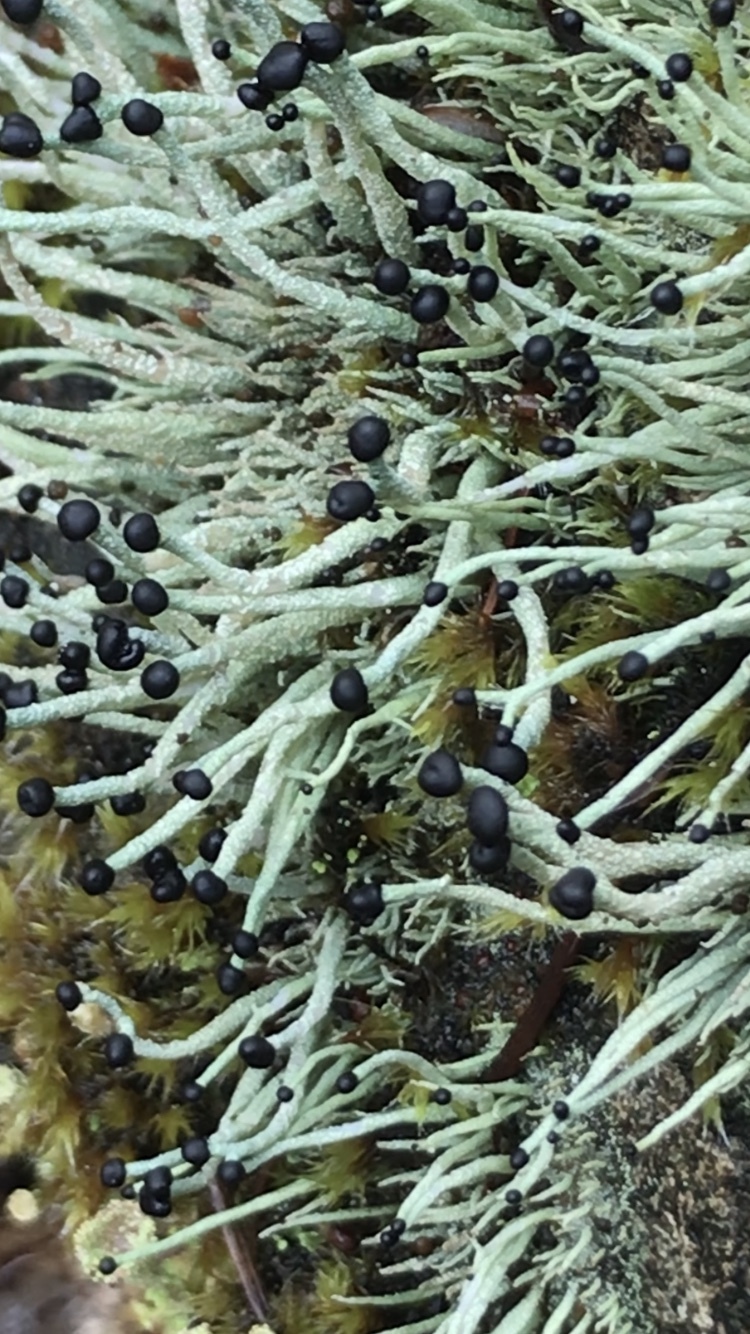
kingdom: Fungi
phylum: Ascomycota
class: Lecanoromycetes
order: Lecanorales
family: Cladoniaceae
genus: Pilophorus
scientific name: Pilophorus acicularis
